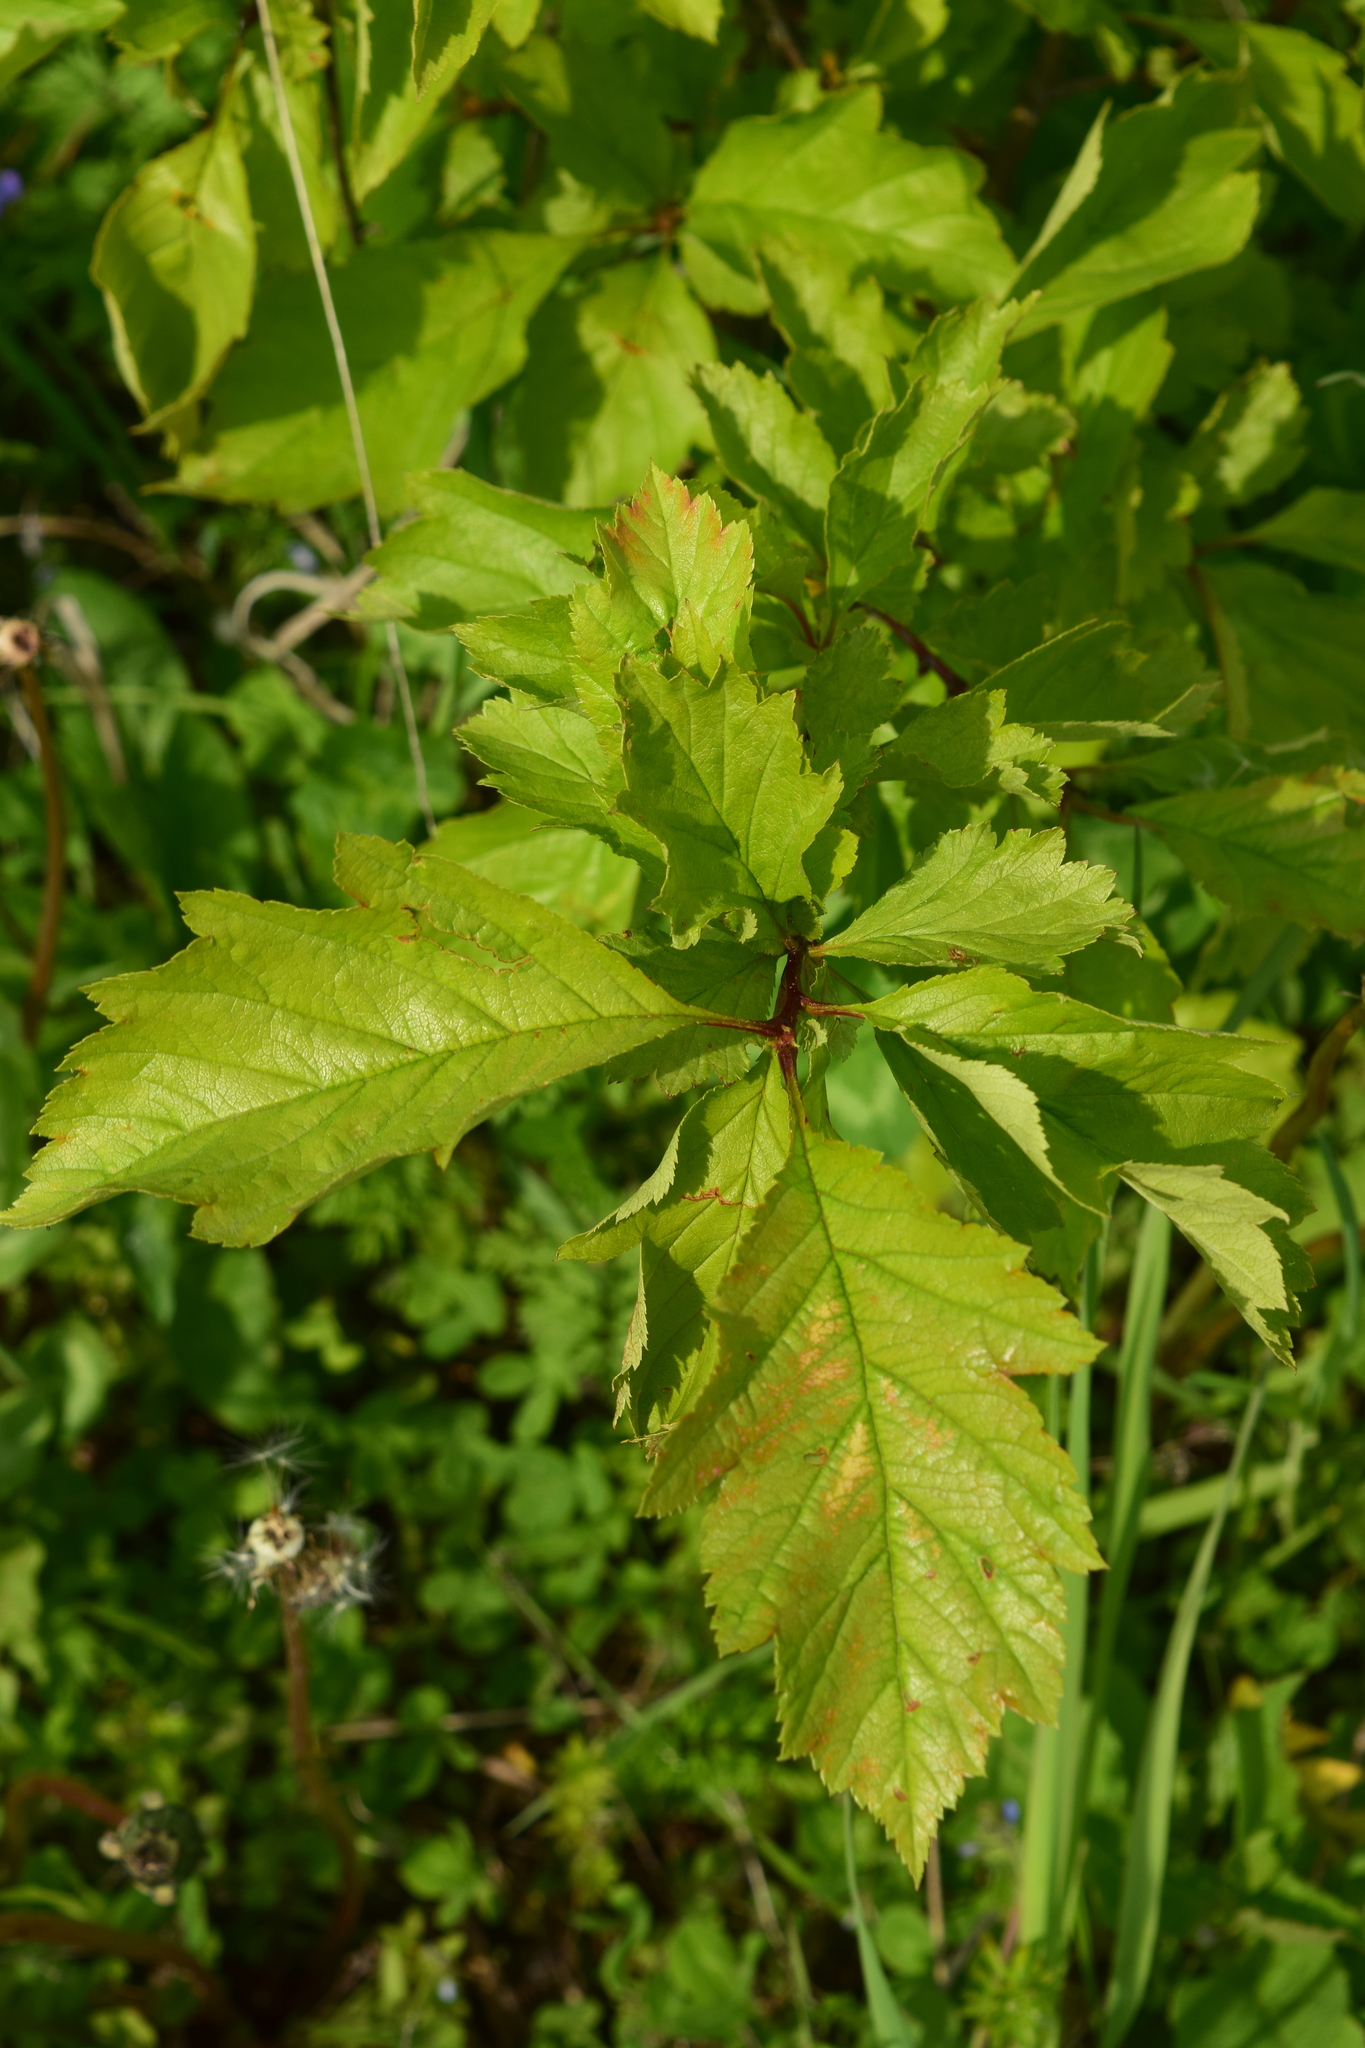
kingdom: Plantae
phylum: Tracheophyta
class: Magnoliopsida
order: Rosales
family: Rosaceae
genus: Crataegus
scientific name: Crataegus sanguinea
